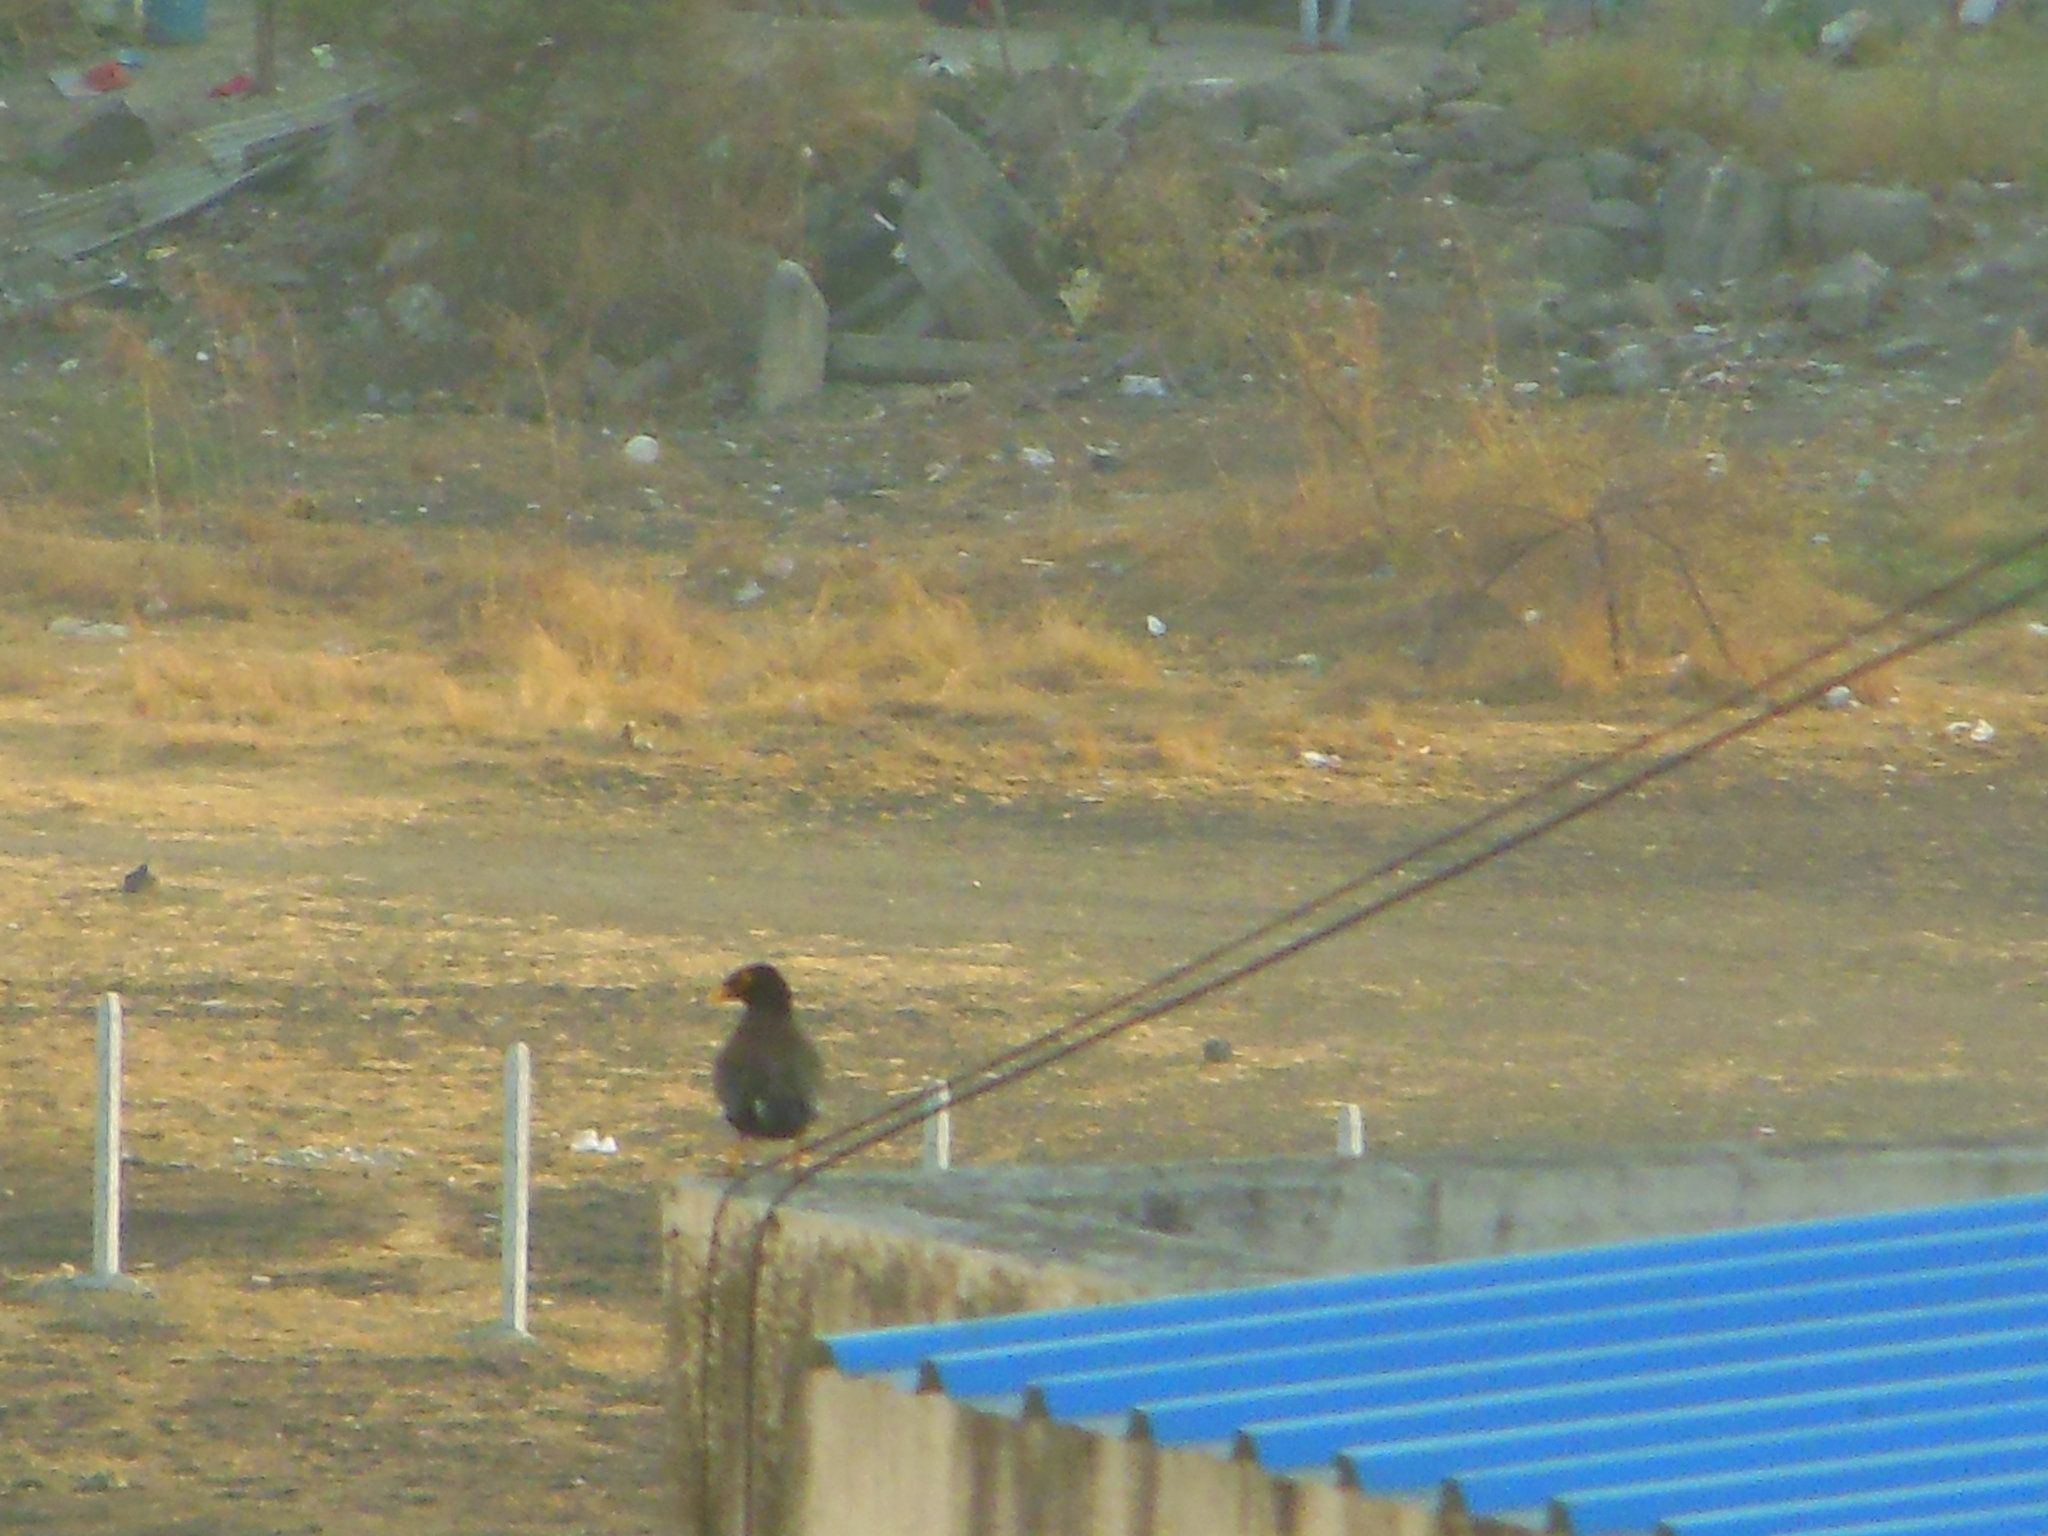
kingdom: Animalia
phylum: Chordata
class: Aves
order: Passeriformes
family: Sturnidae
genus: Acridotheres
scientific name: Acridotheres tristis
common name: Common myna
